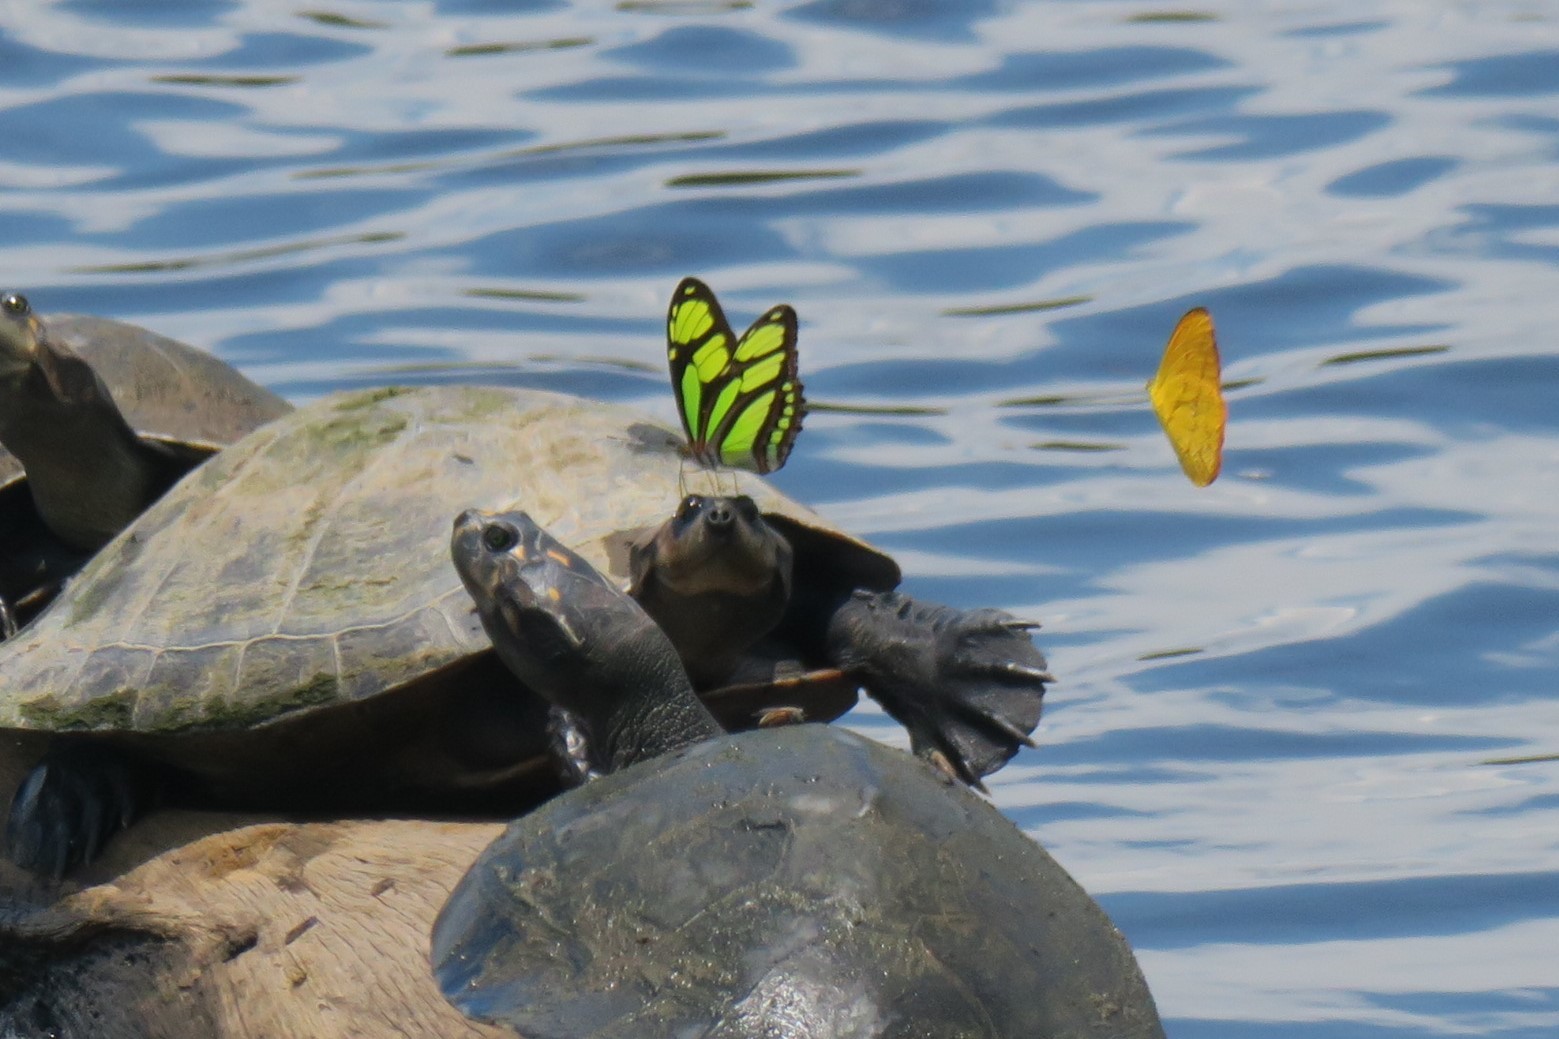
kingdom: Animalia
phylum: Arthropoda
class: Insecta
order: Lepidoptera
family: Nymphalidae
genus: Philaethria
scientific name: Philaethria dido
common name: Scarce bamboo page
